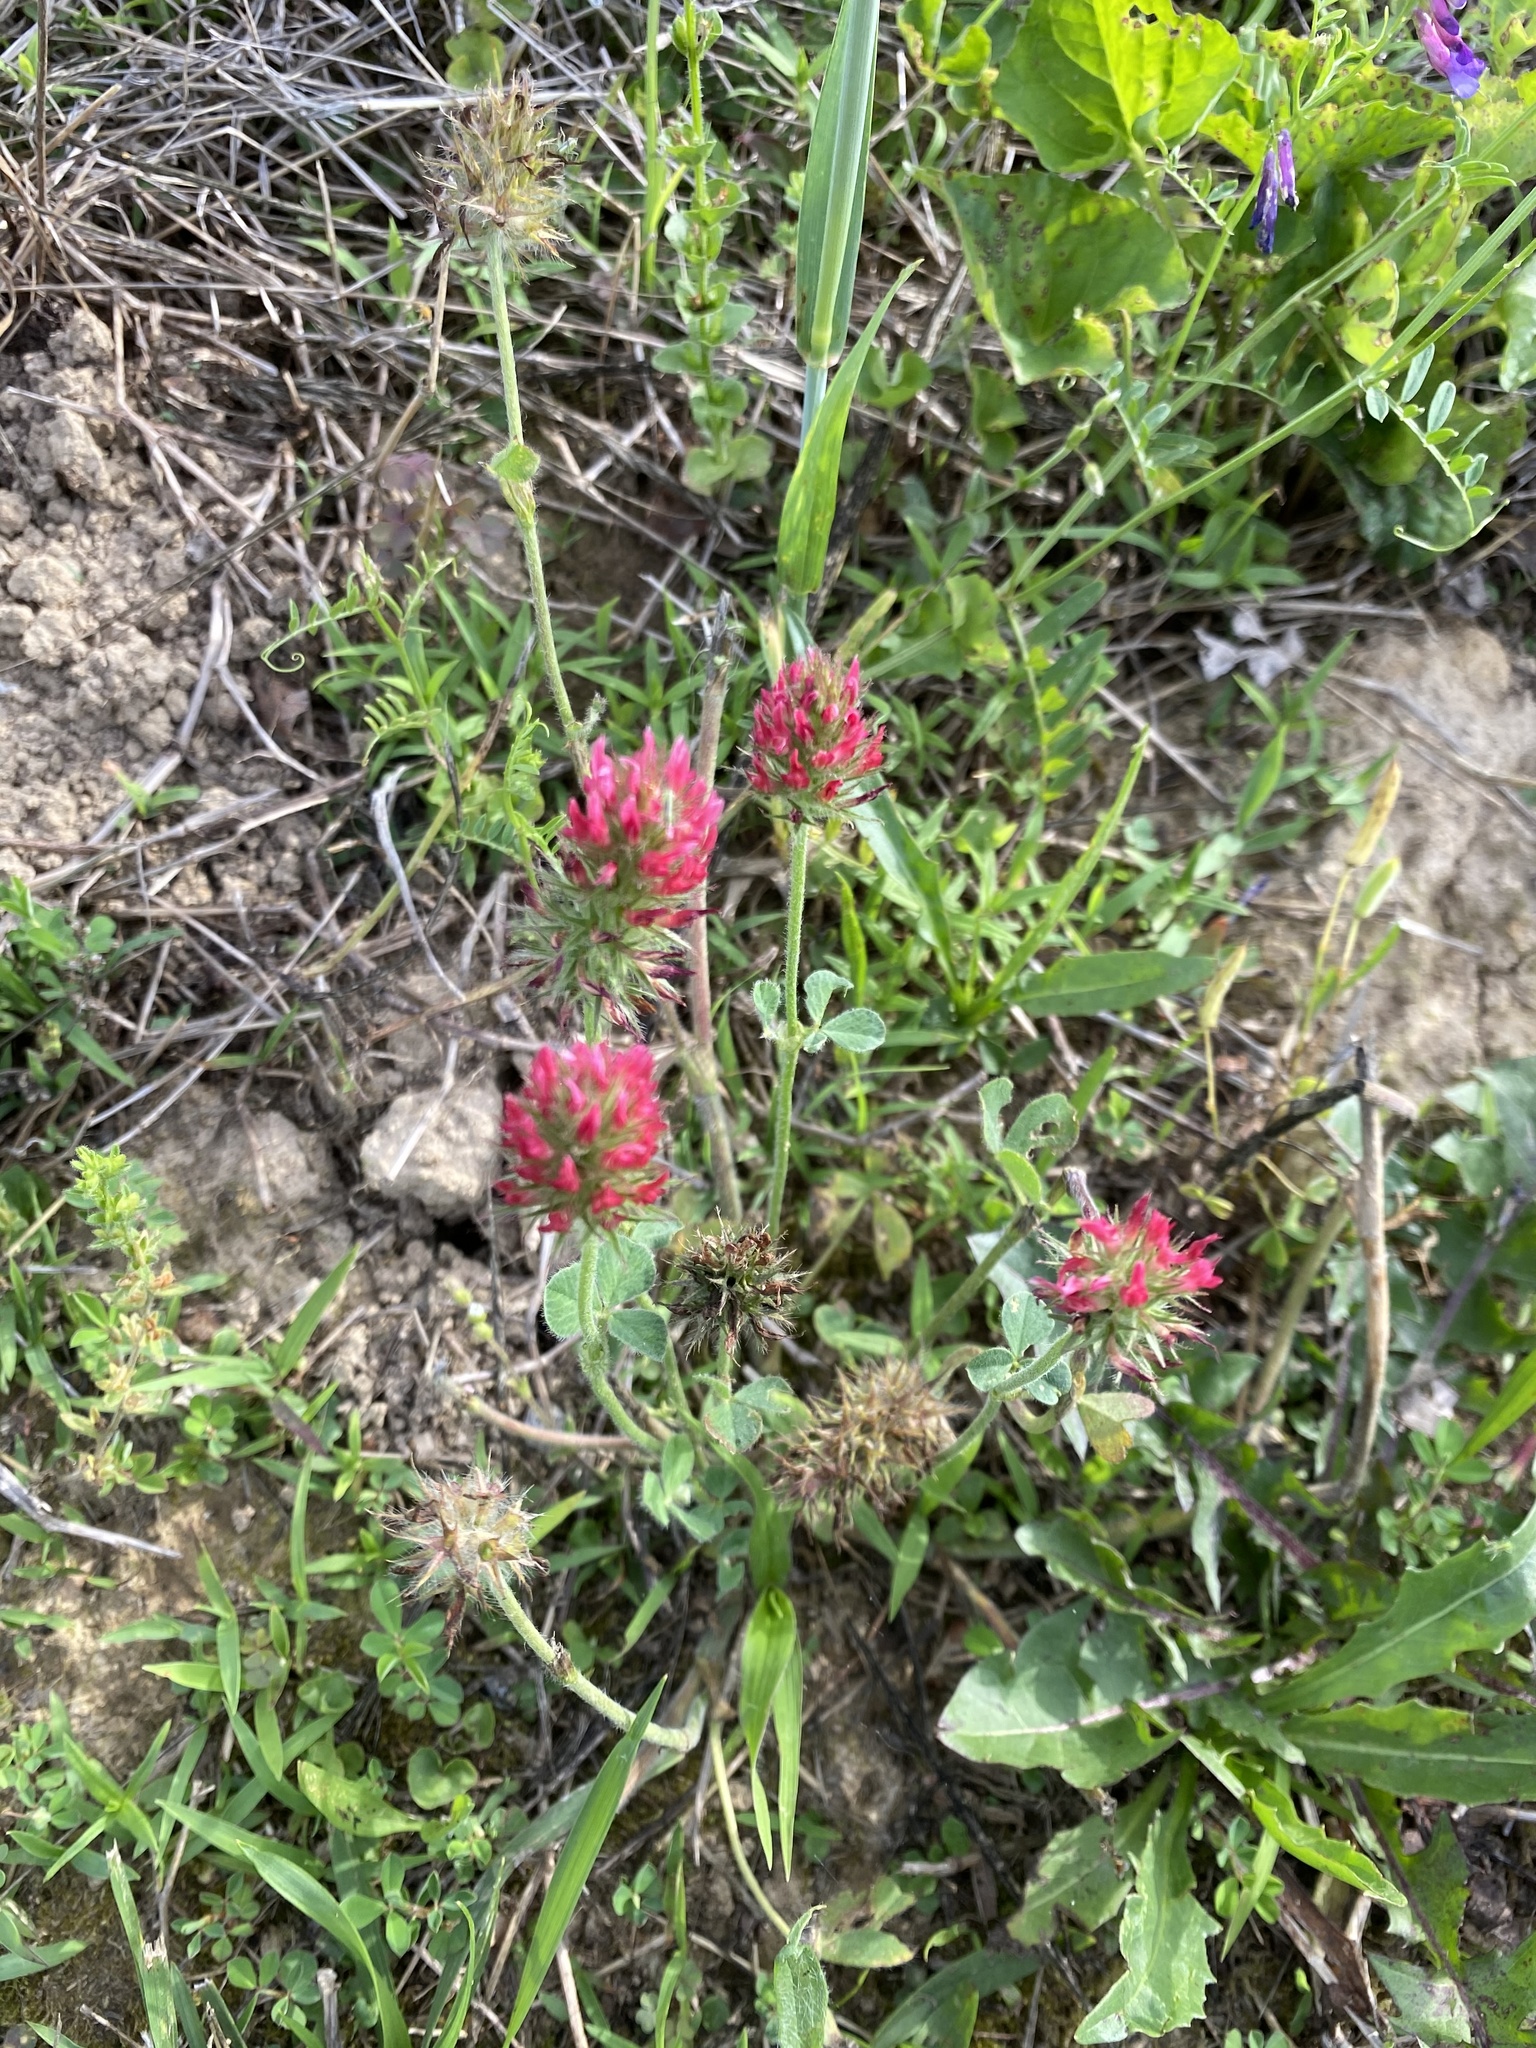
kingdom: Plantae
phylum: Tracheophyta
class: Magnoliopsida
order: Fabales
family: Fabaceae
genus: Trifolium
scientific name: Trifolium incarnatum
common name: Crimson clover
